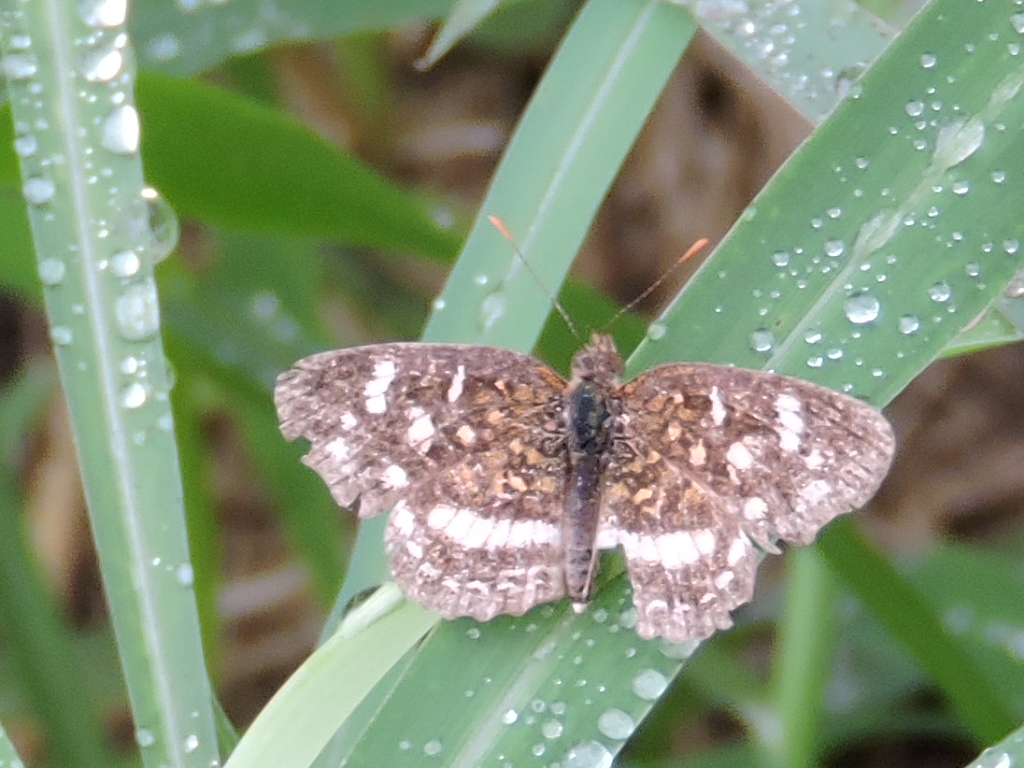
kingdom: Animalia
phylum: Arthropoda
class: Insecta
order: Lepidoptera
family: Nymphalidae
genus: Anthanassa
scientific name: Anthanassa tulcis
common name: Pale-banded crescent
